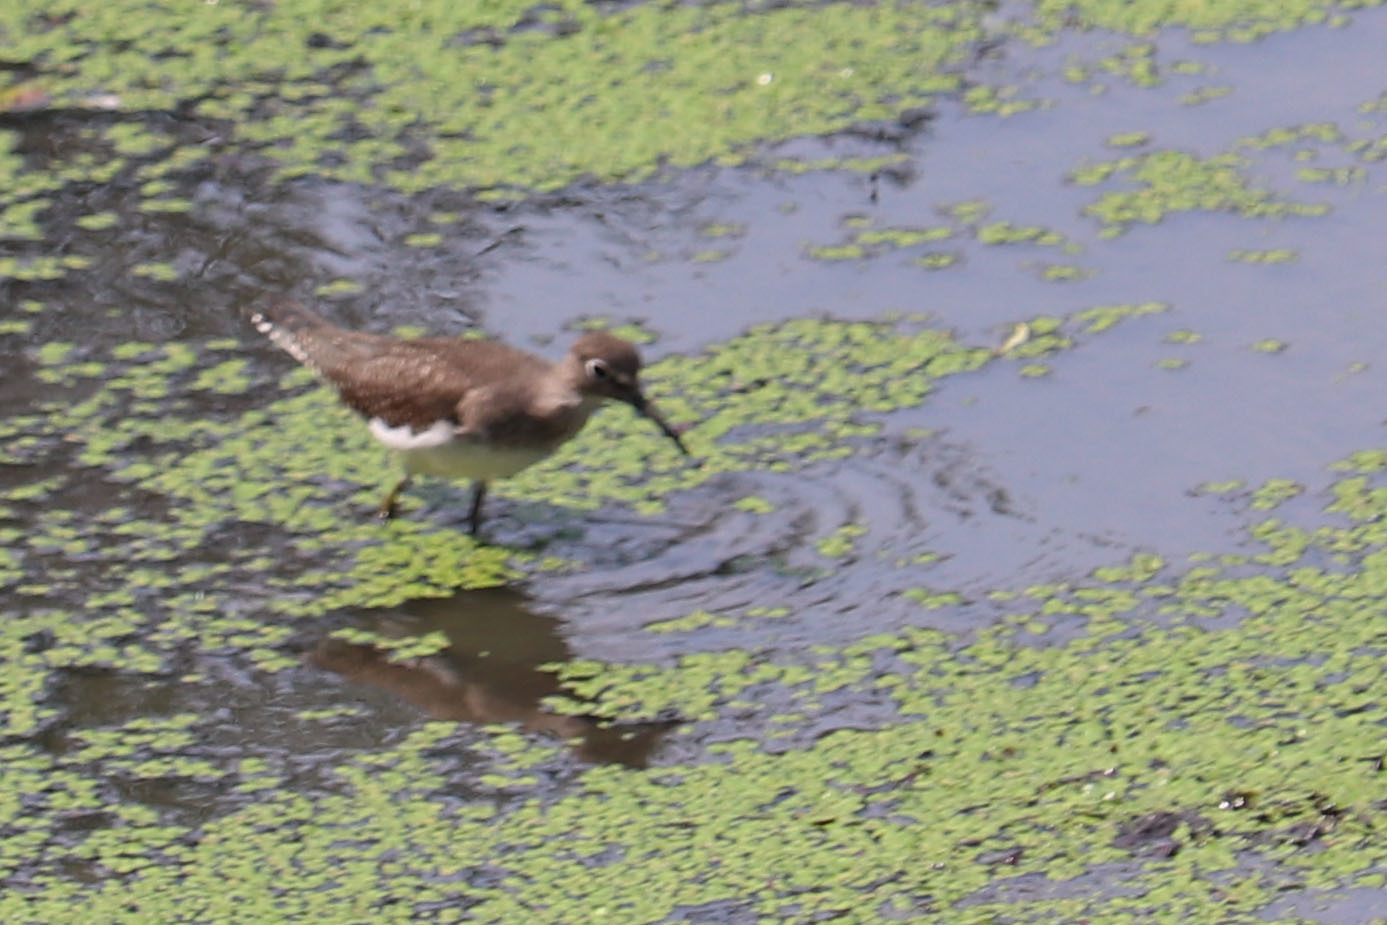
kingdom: Animalia
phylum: Chordata
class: Aves
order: Charadriiformes
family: Scolopacidae
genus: Tringa
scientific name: Tringa solitaria
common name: Solitary sandpiper
